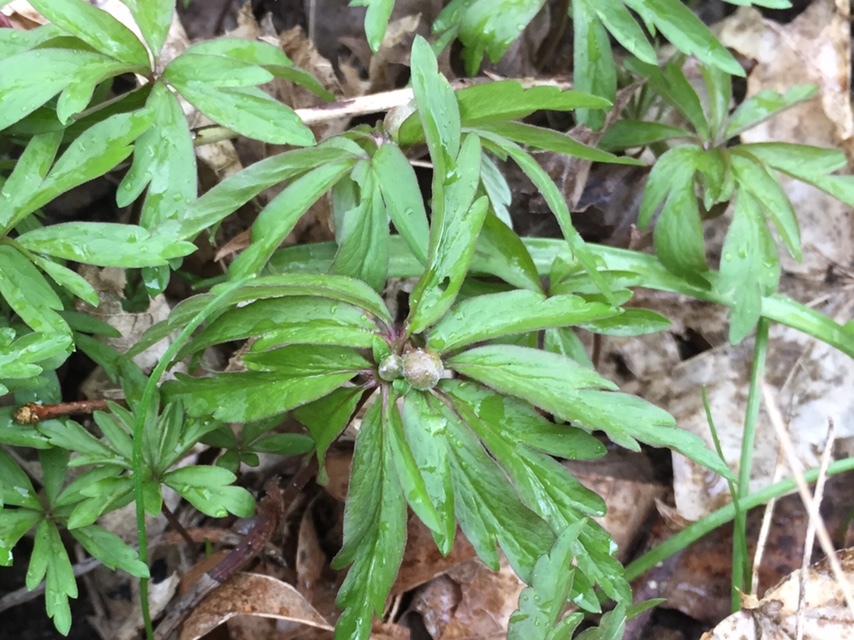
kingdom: Plantae
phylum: Tracheophyta
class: Magnoliopsida
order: Ranunculales
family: Ranunculaceae
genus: Anemone
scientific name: Anemone ranunculoides
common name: Yellow anemone
